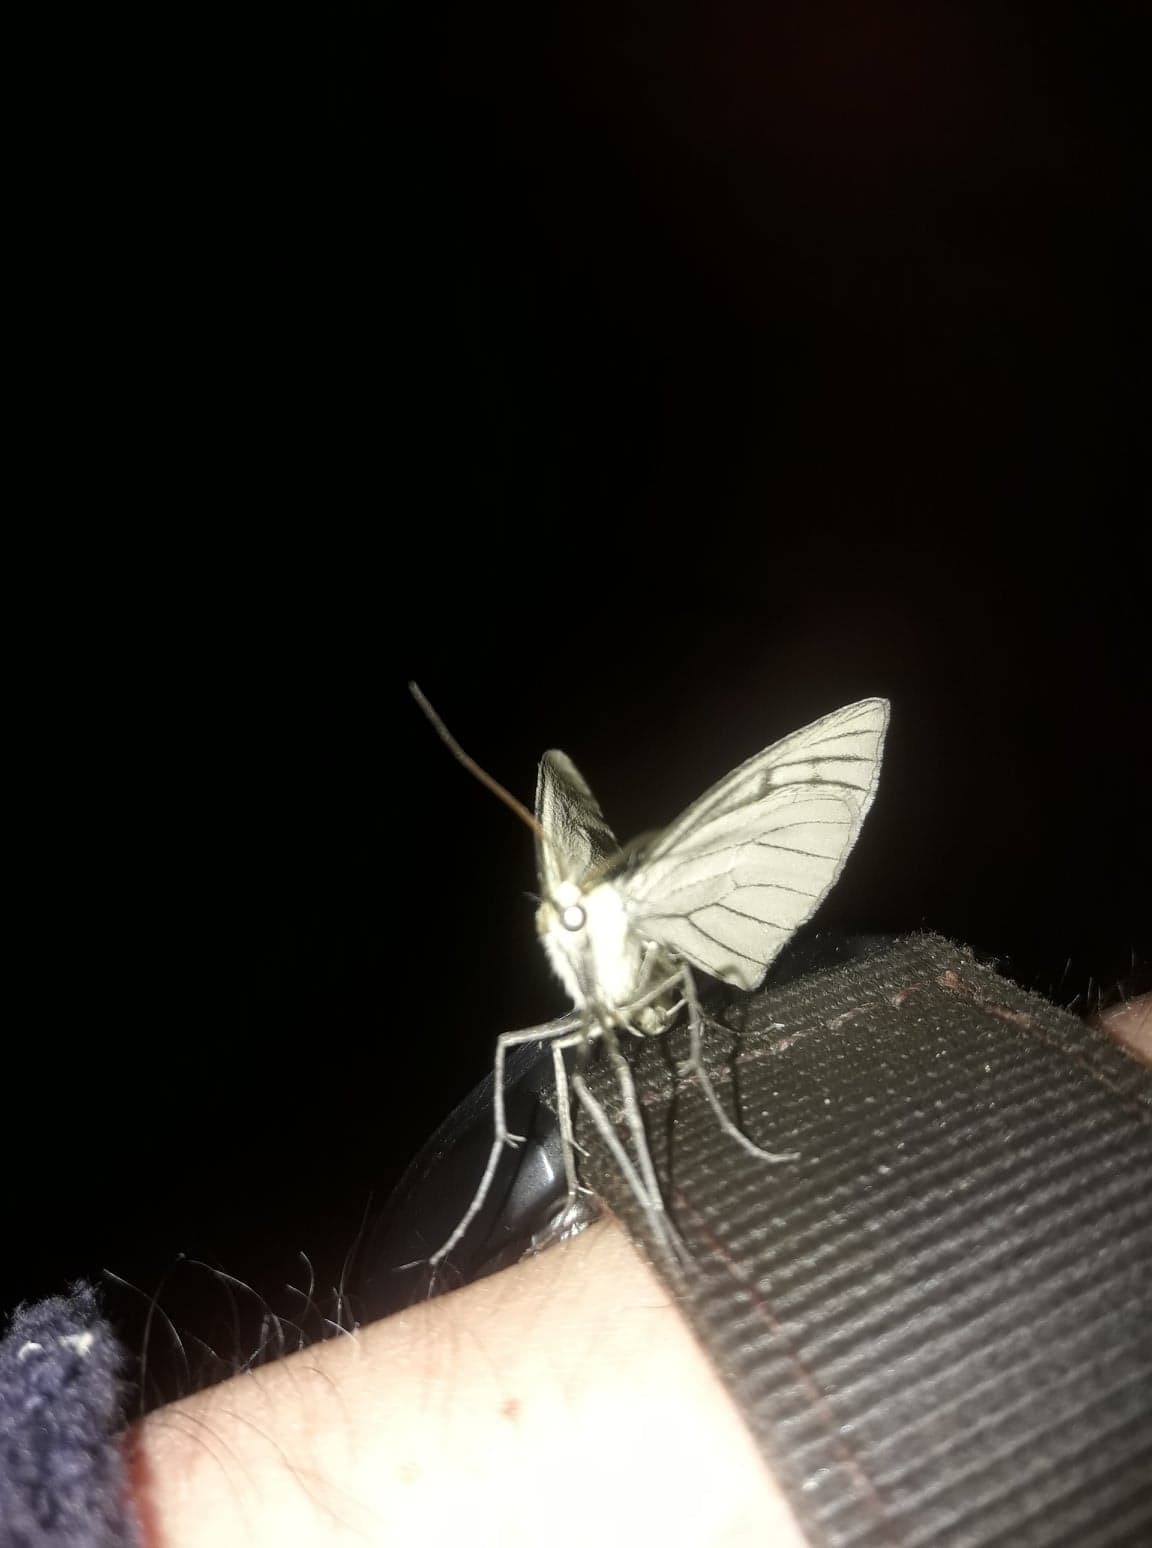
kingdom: Animalia
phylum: Arthropoda
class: Insecta
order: Lepidoptera
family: Geometridae
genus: Siona
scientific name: Siona lineata
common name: Black-veined moth
